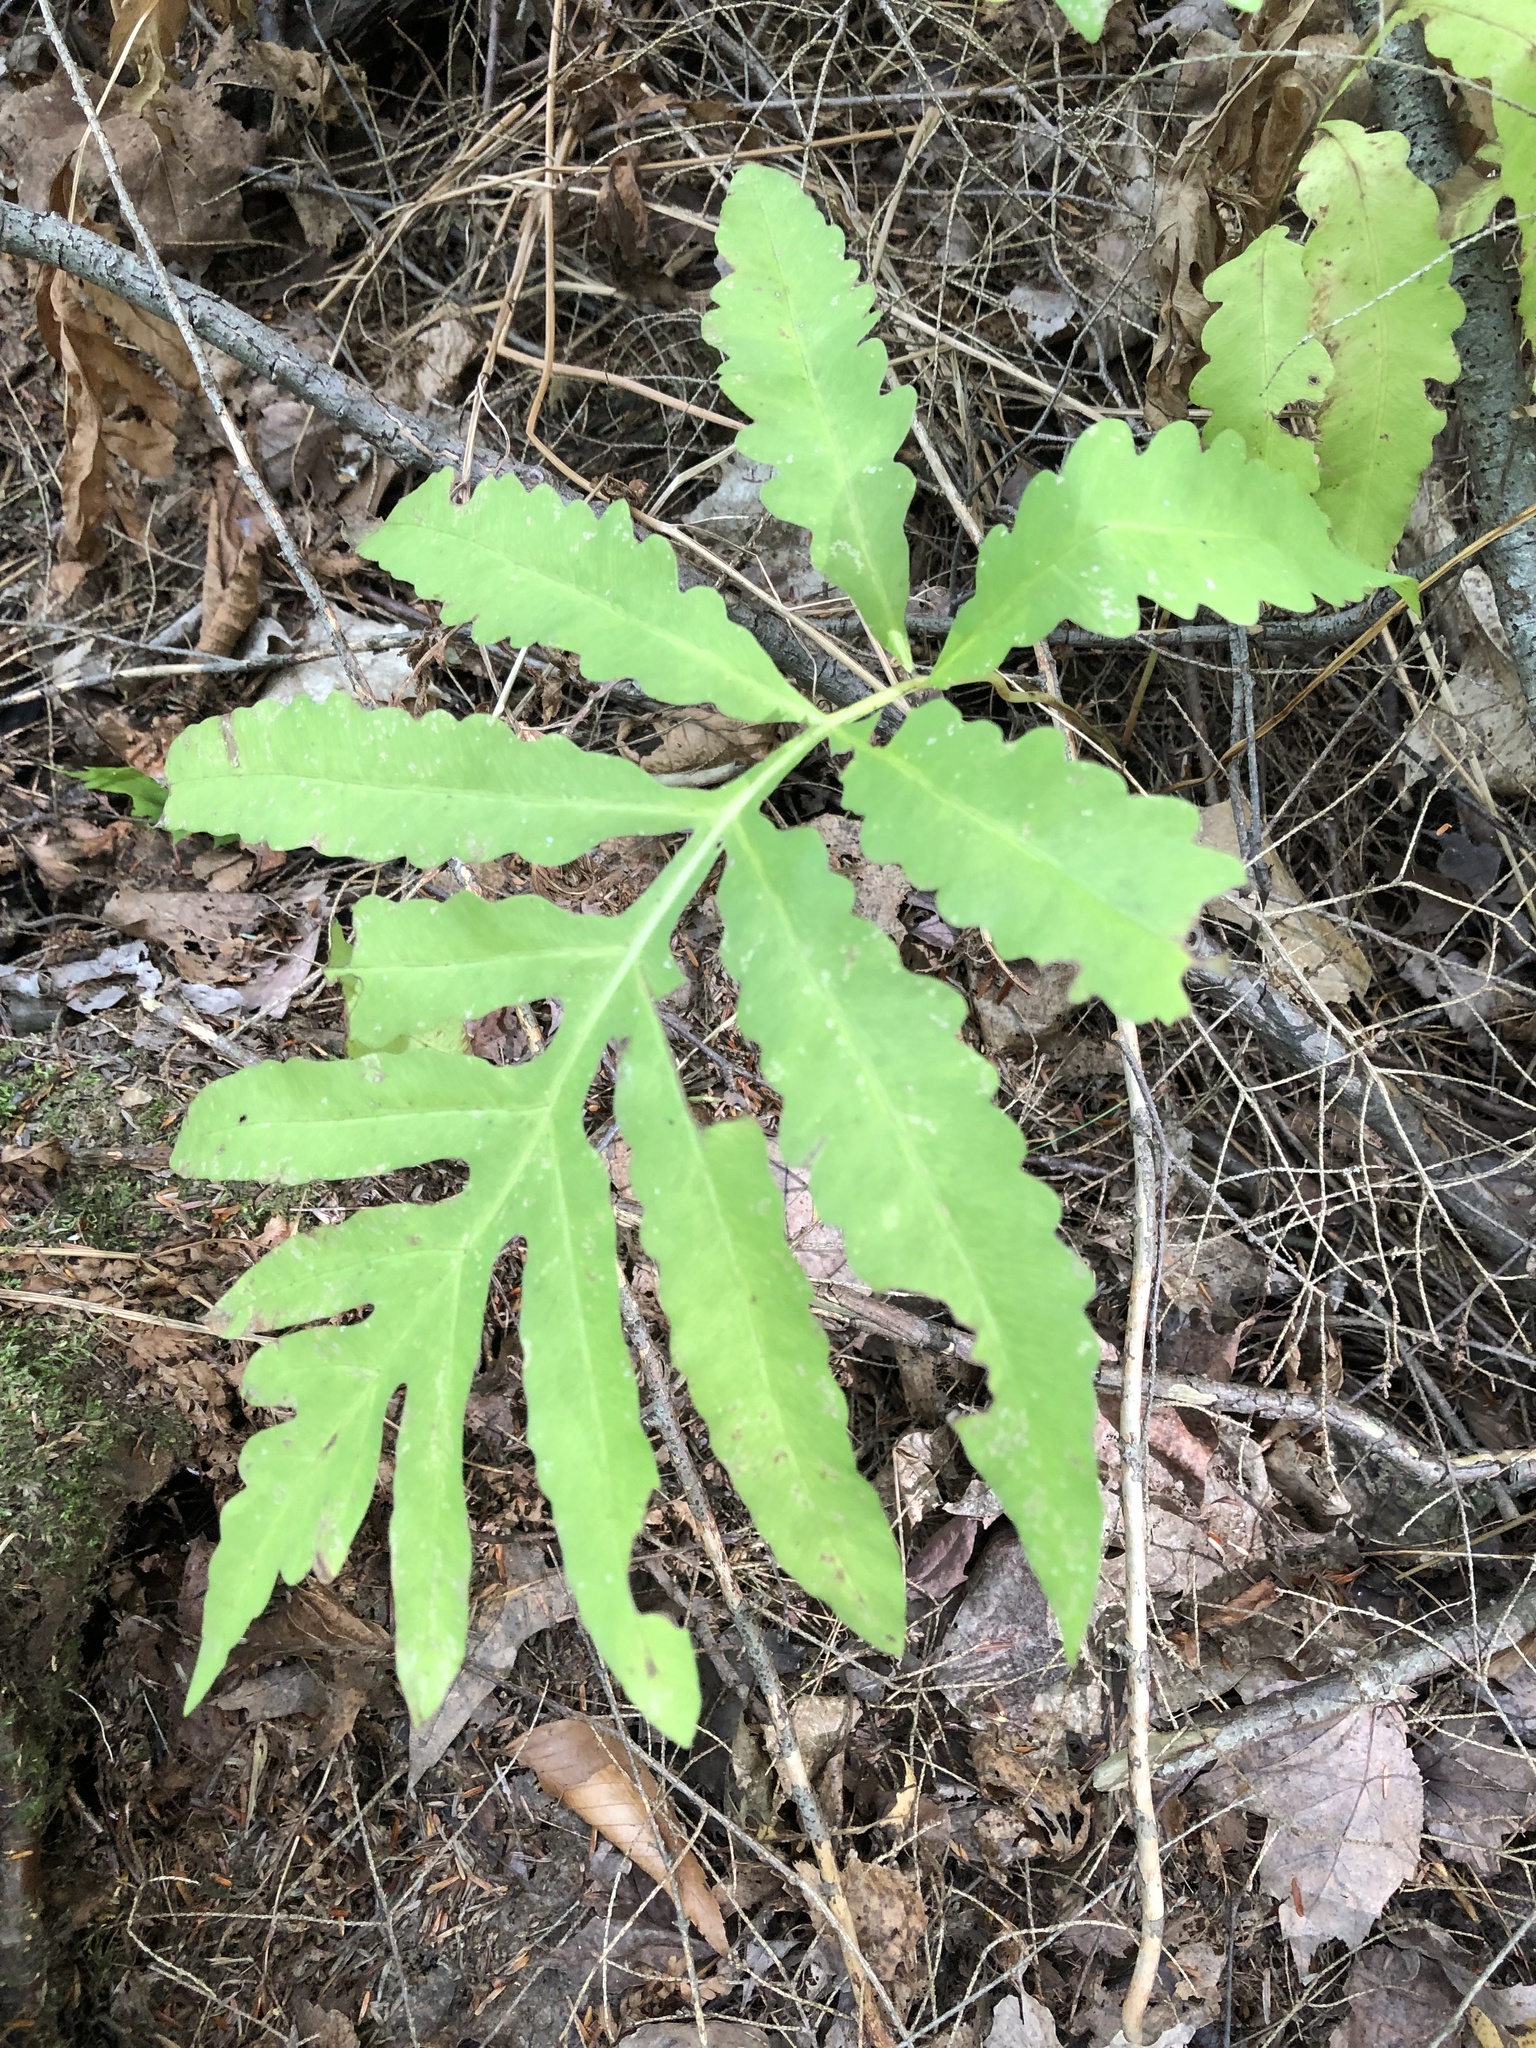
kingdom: Plantae
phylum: Tracheophyta
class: Polypodiopsida
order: Polypodiales
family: Onocleaceae
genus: Onoclea
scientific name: Onoclea sensibilis
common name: Sensitive fern
